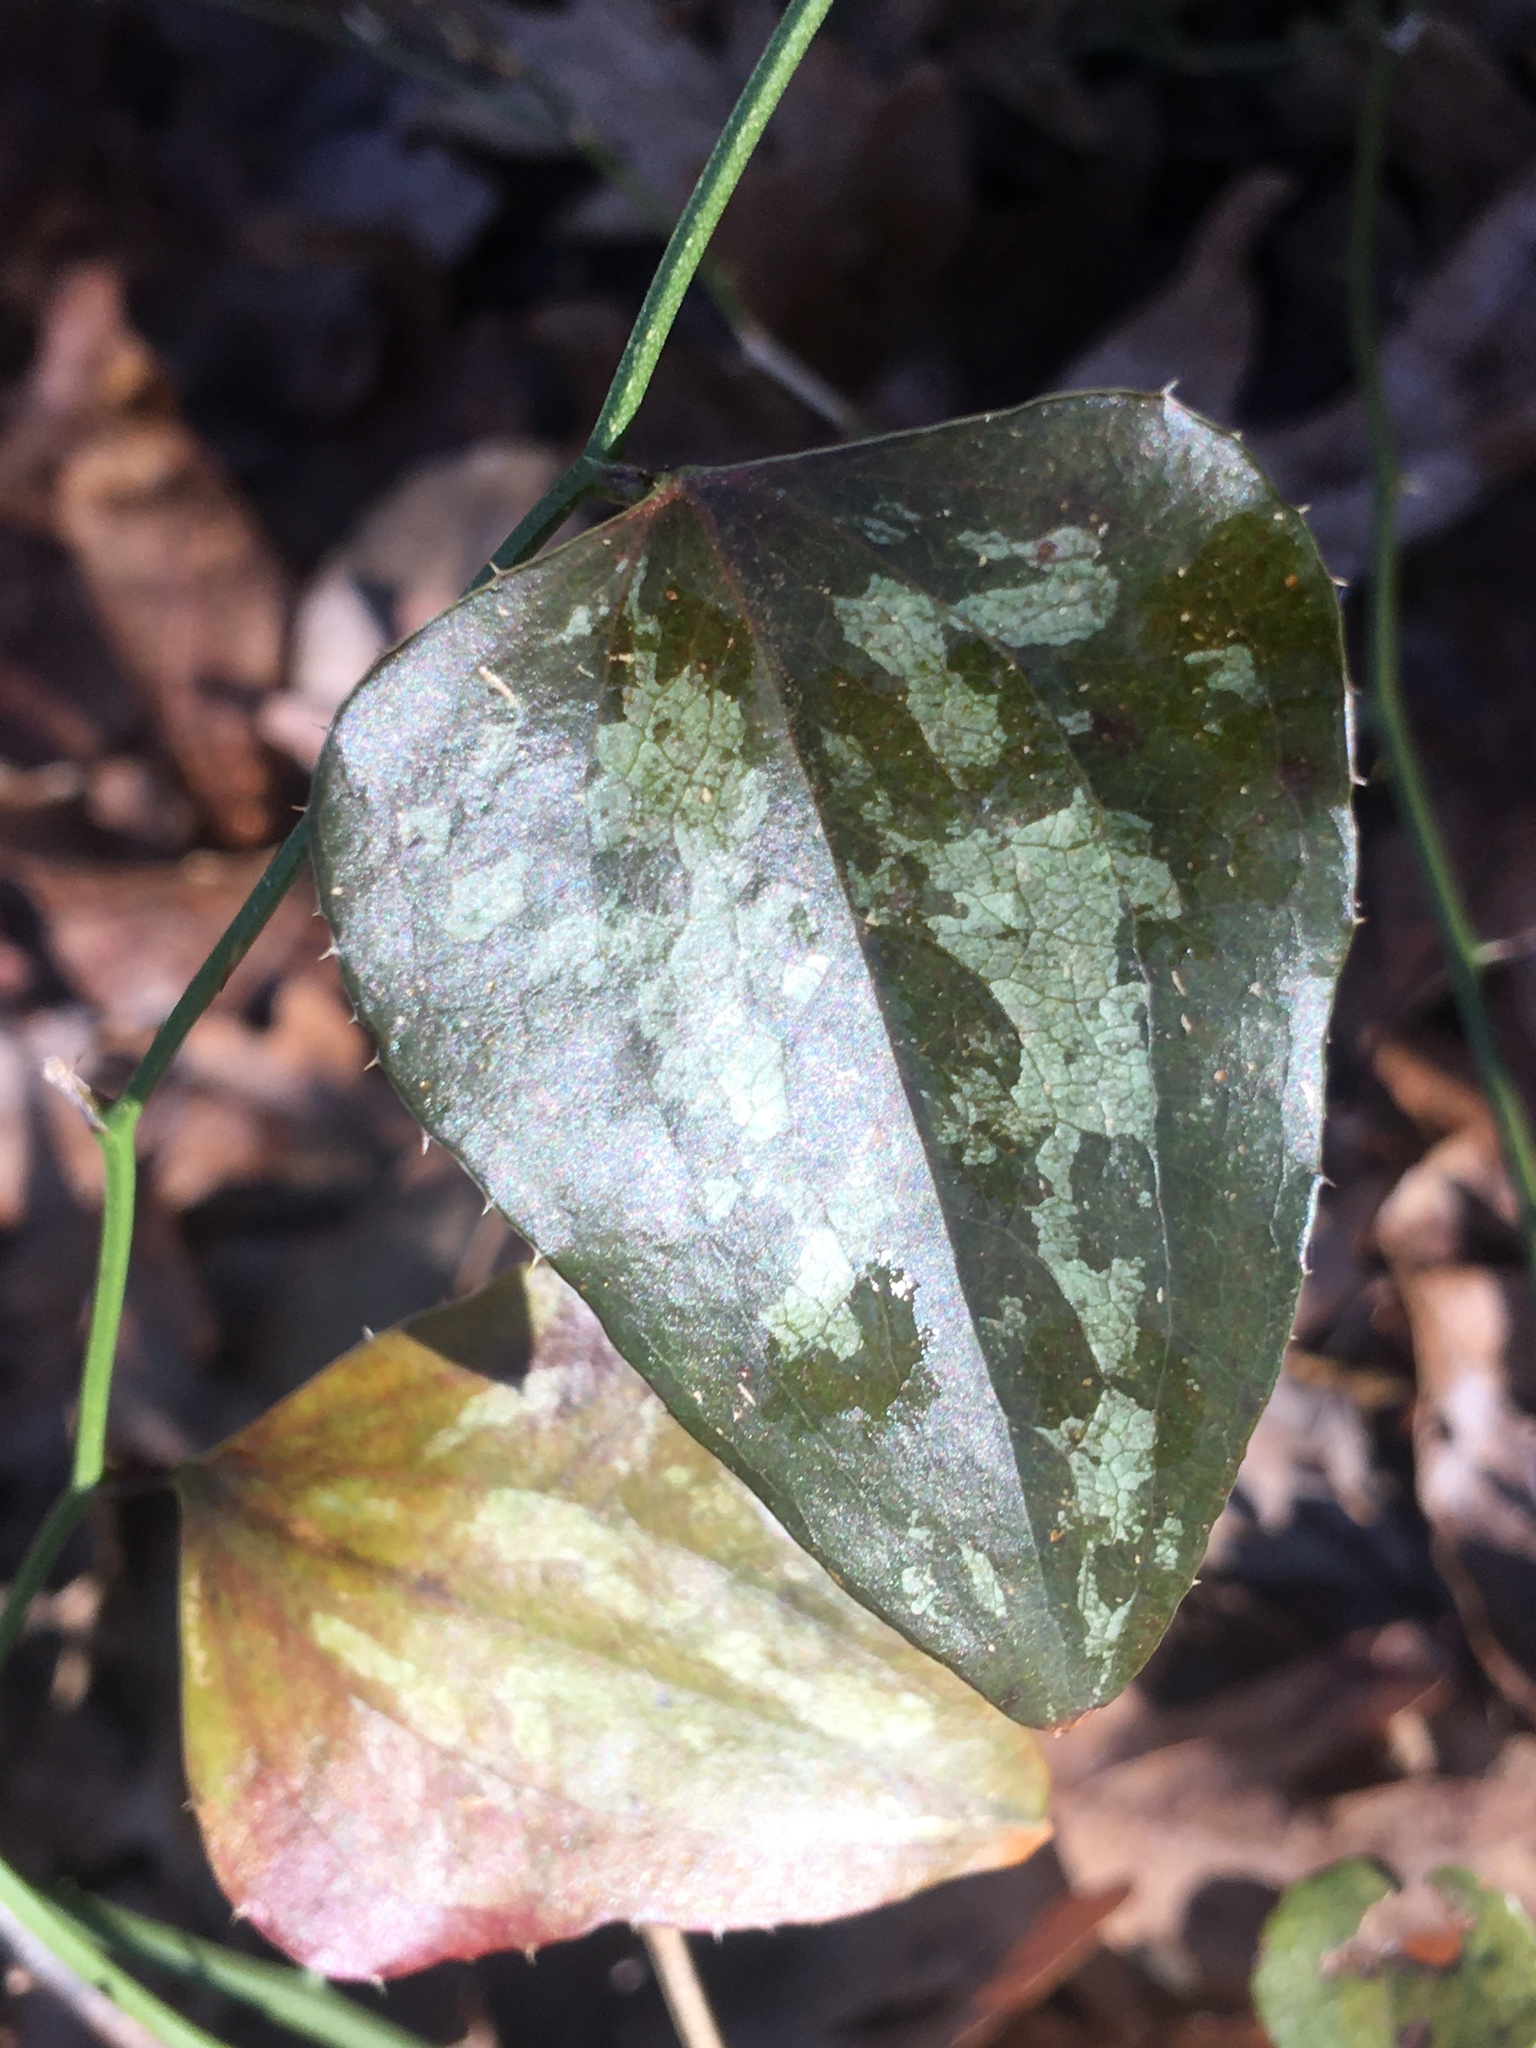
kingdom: Plantae
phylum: Tracheophyta
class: Liliopsida
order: Liliales
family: Smilacaceae
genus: Smilax
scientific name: Smilax bona-nox
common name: Catbrier
